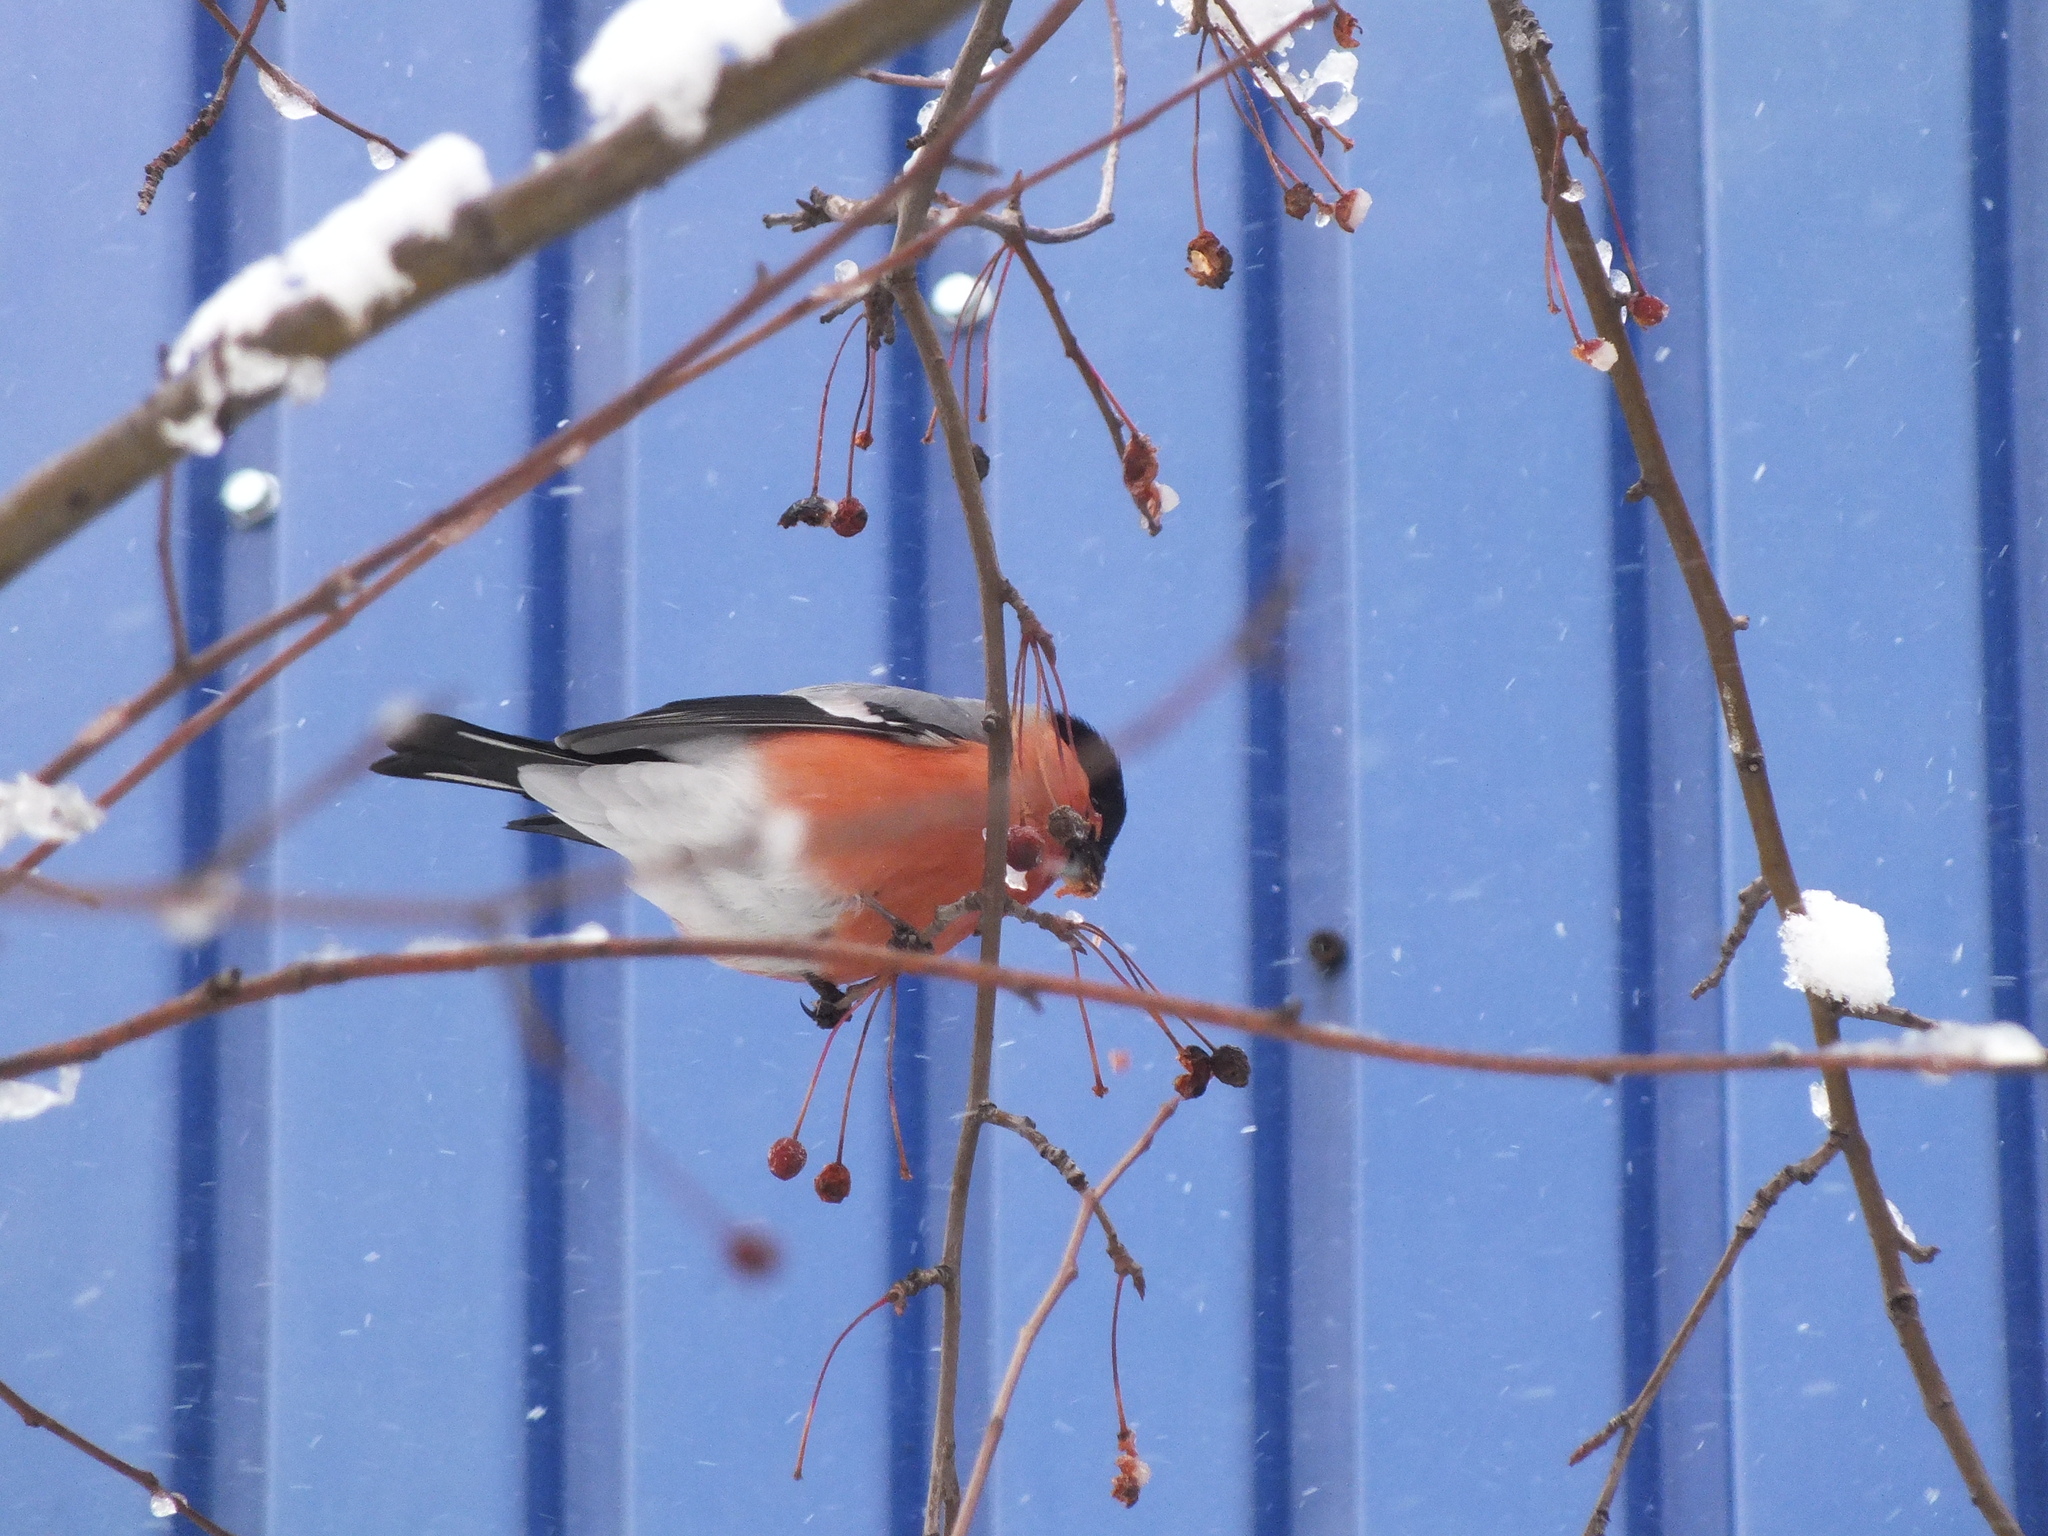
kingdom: Animalia
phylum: Chordata
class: Aves
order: Passeriformes
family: Fringillidae
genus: Pyrrhula
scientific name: Pyrrhula pyrrhula
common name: Eurasian bullfinch
